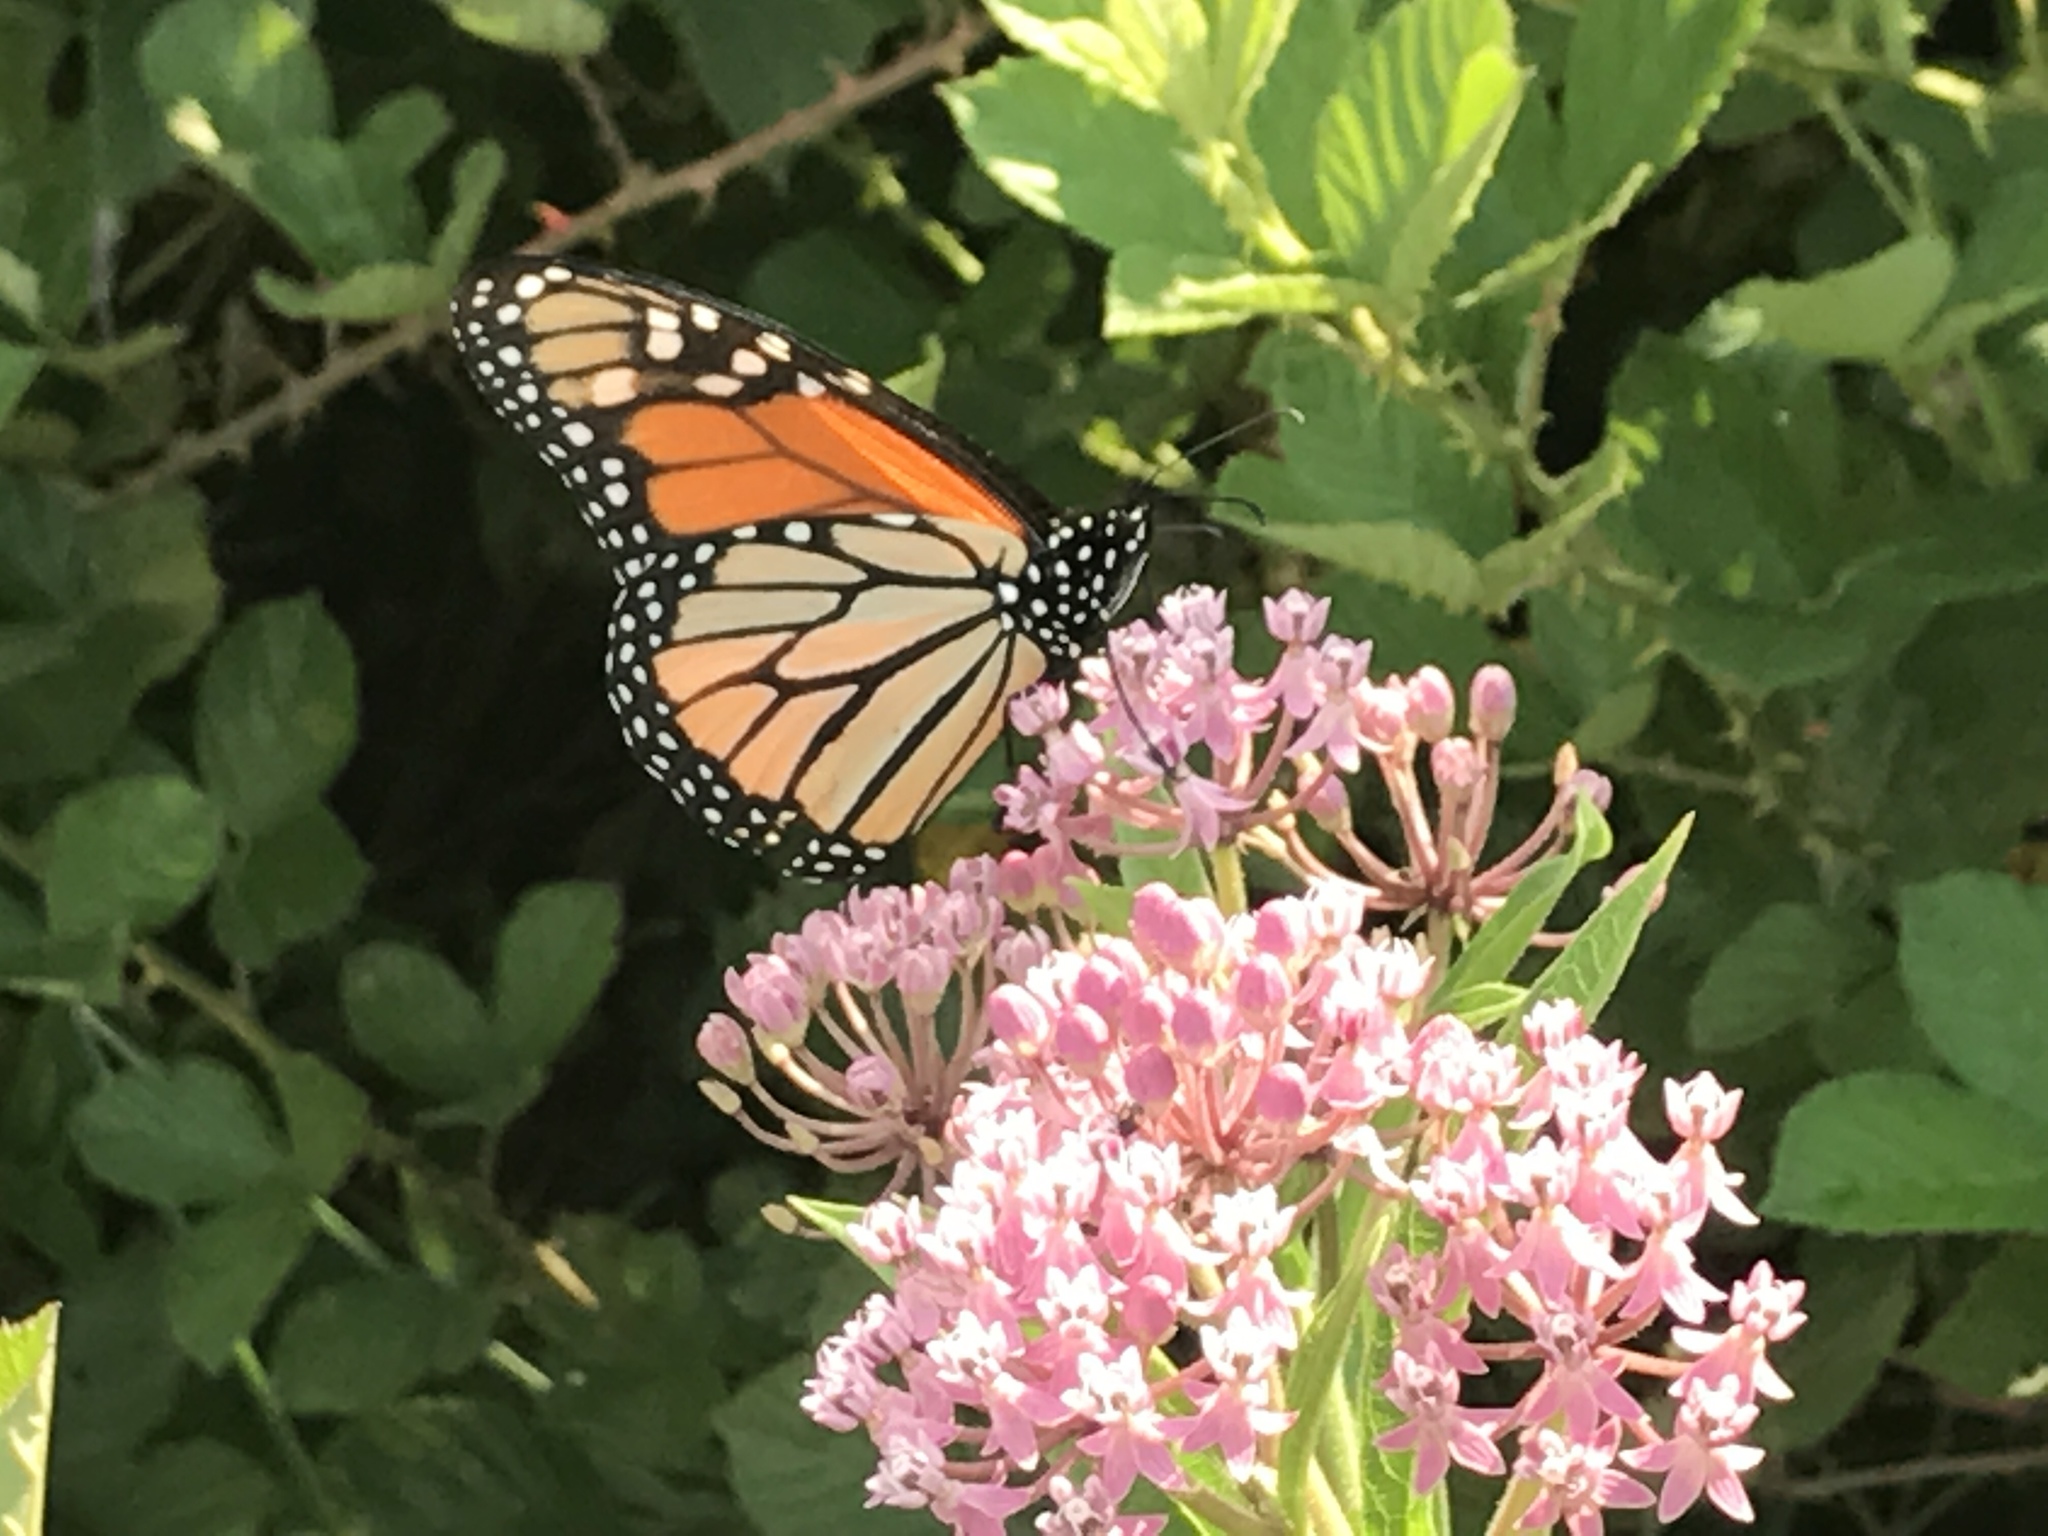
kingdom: Animalia
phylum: Arthropoda
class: Insecta
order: Lepidoptera
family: Nymphalidae
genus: Danaus
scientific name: Danaus plexippus
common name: Monarch
